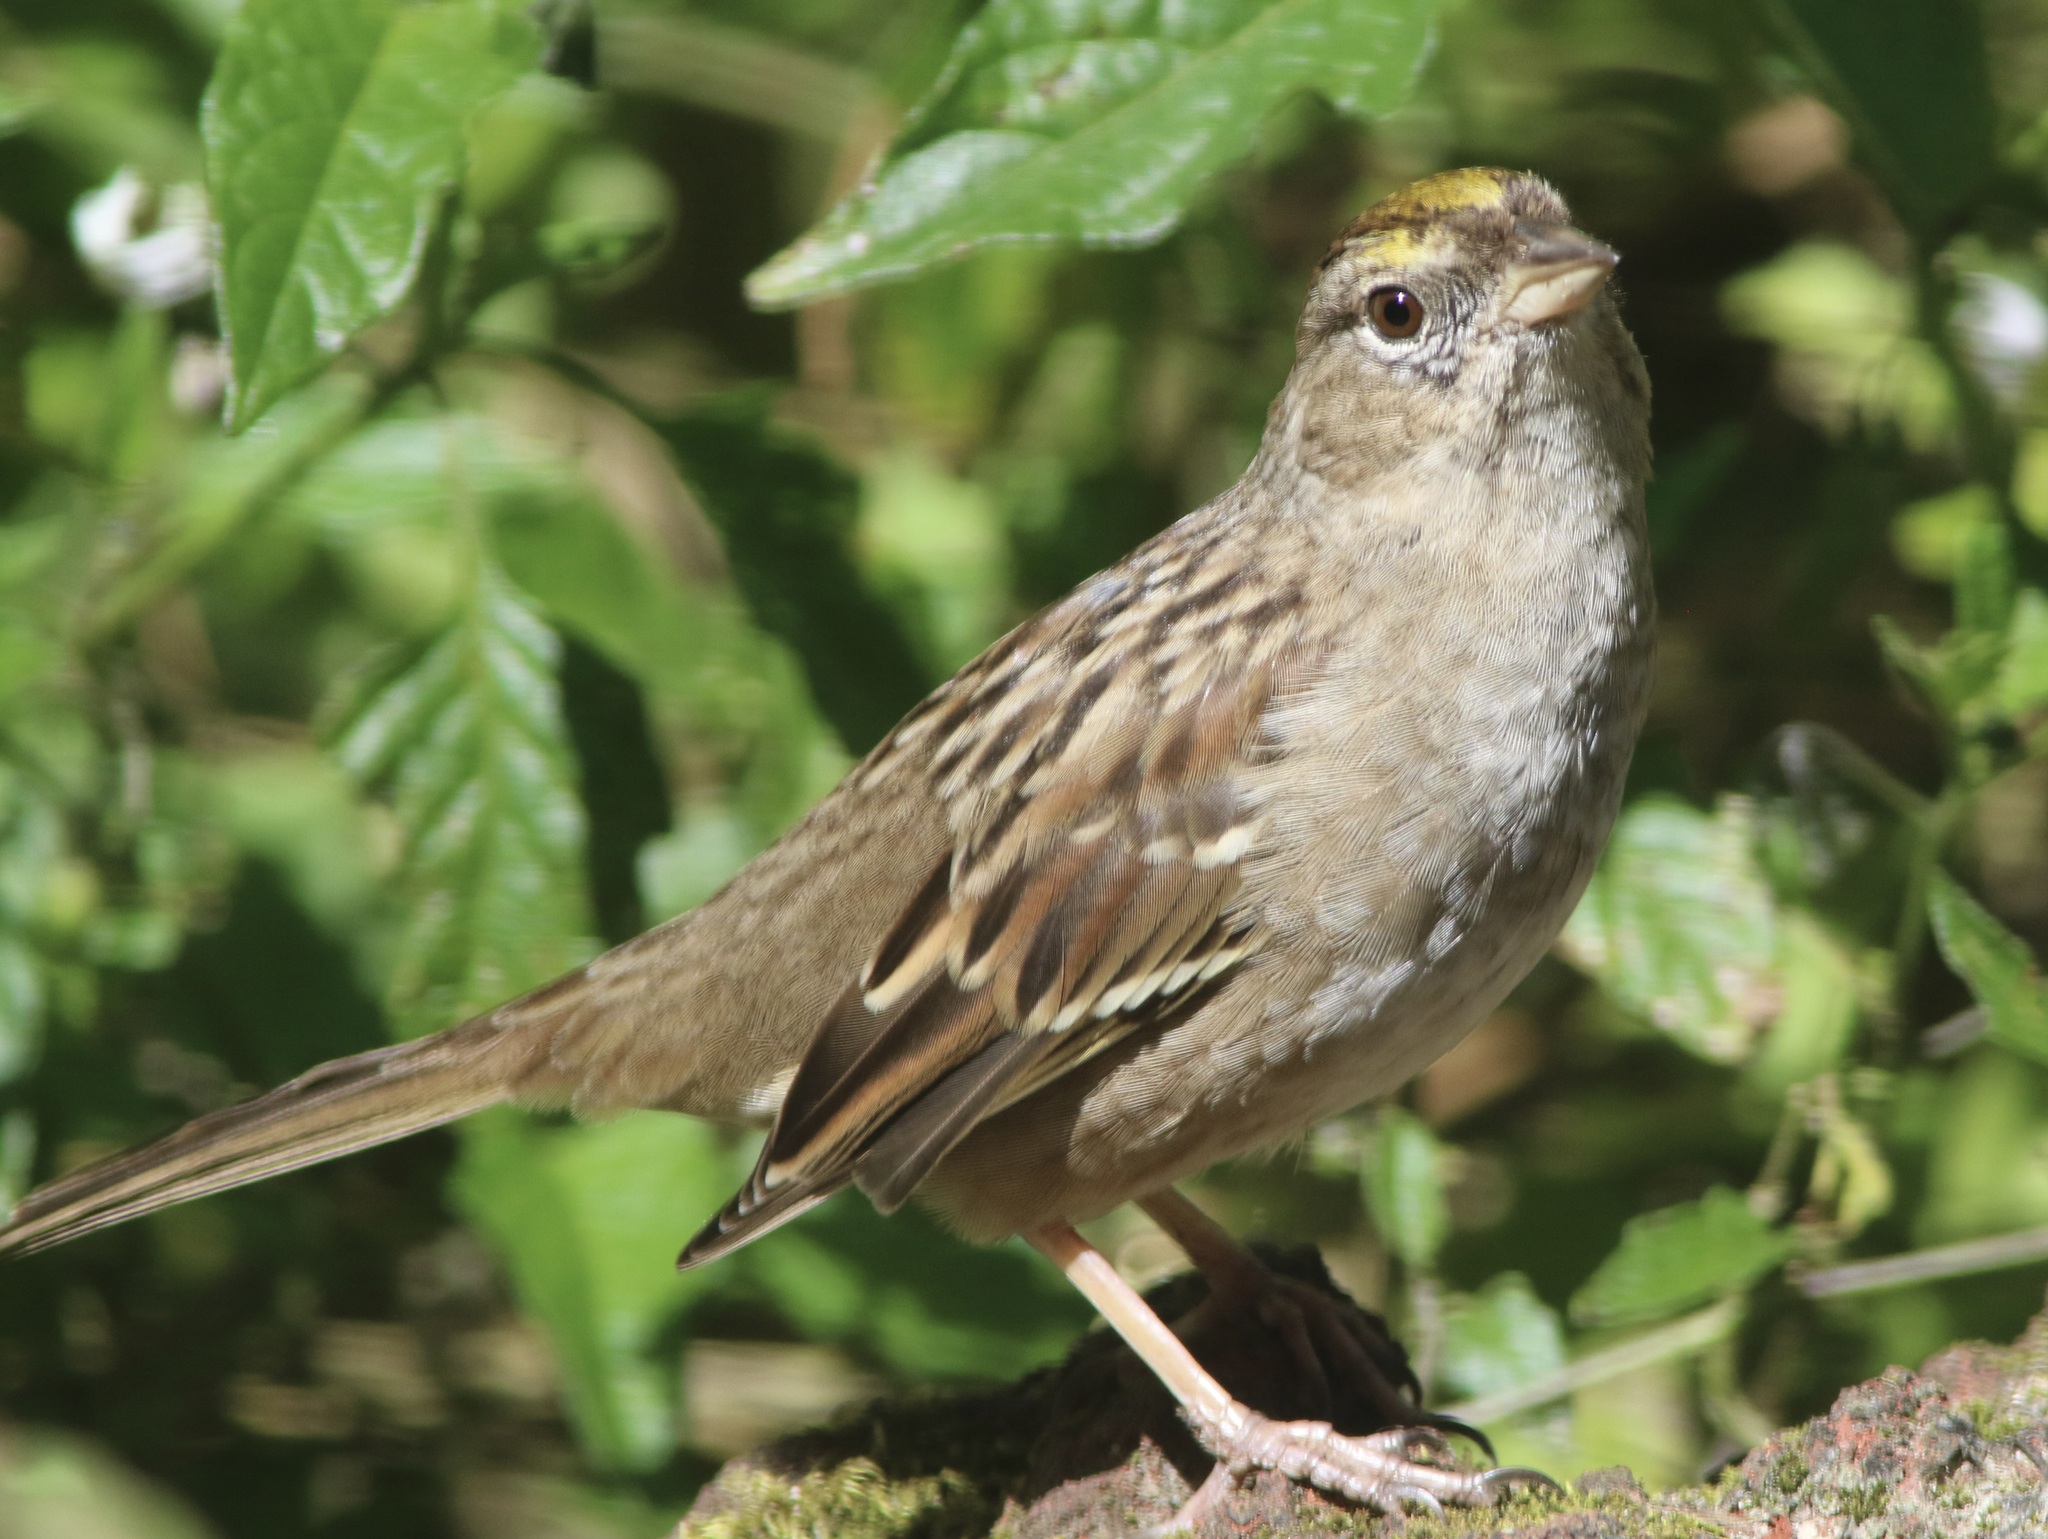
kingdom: Animalia
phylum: Chordata
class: Aves
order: Passeriformes
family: Passerellidae
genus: Zonotrichia
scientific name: Zonotrichia atricapilla
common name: Golden-crowned sparrow
